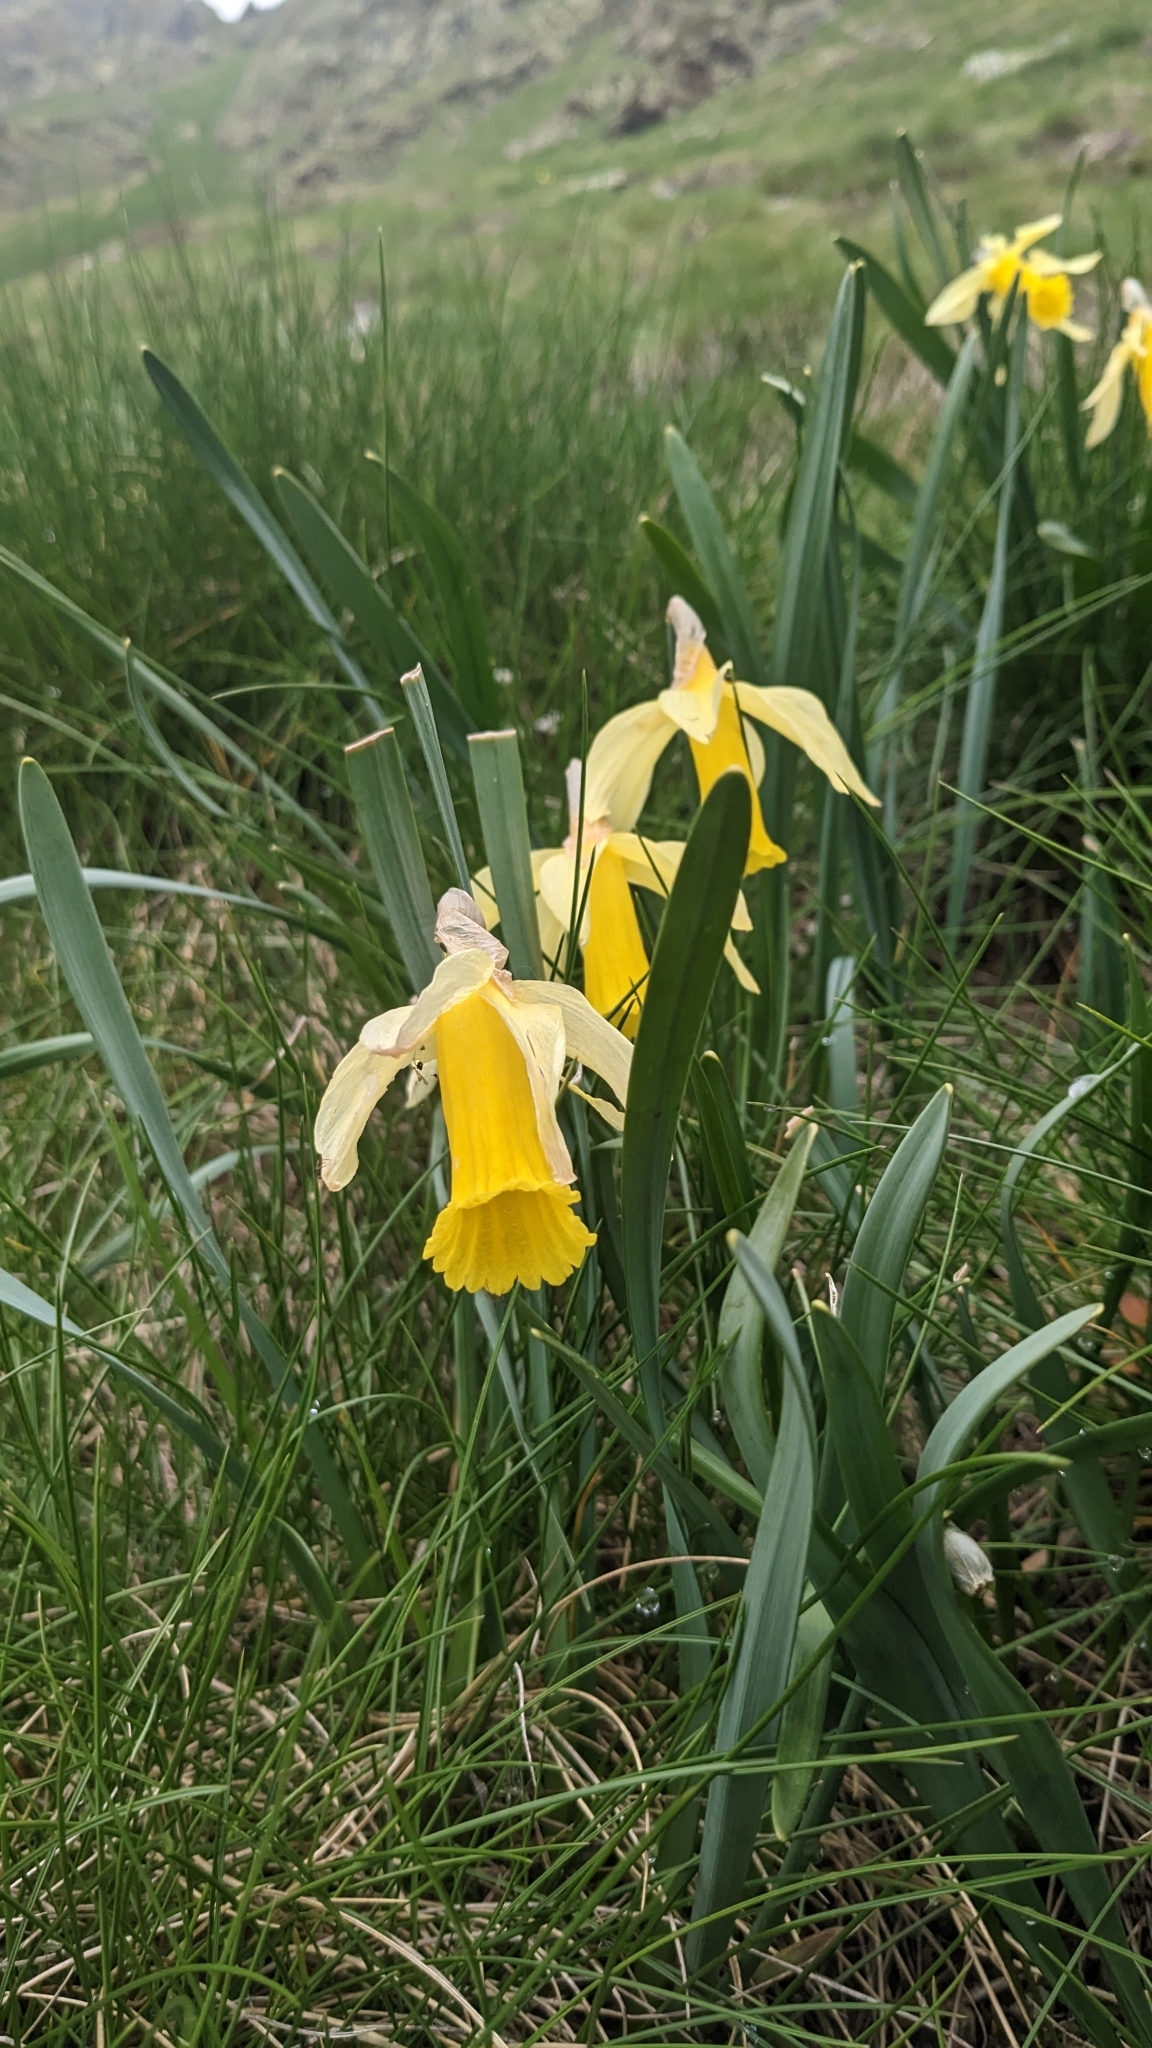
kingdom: Plantae
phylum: Tracheophyta
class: Liliopsida
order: Asparagales
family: Amaryllidaceae
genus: Narcissus
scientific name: Narcissus pseudonarcissus
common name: Daffodil
